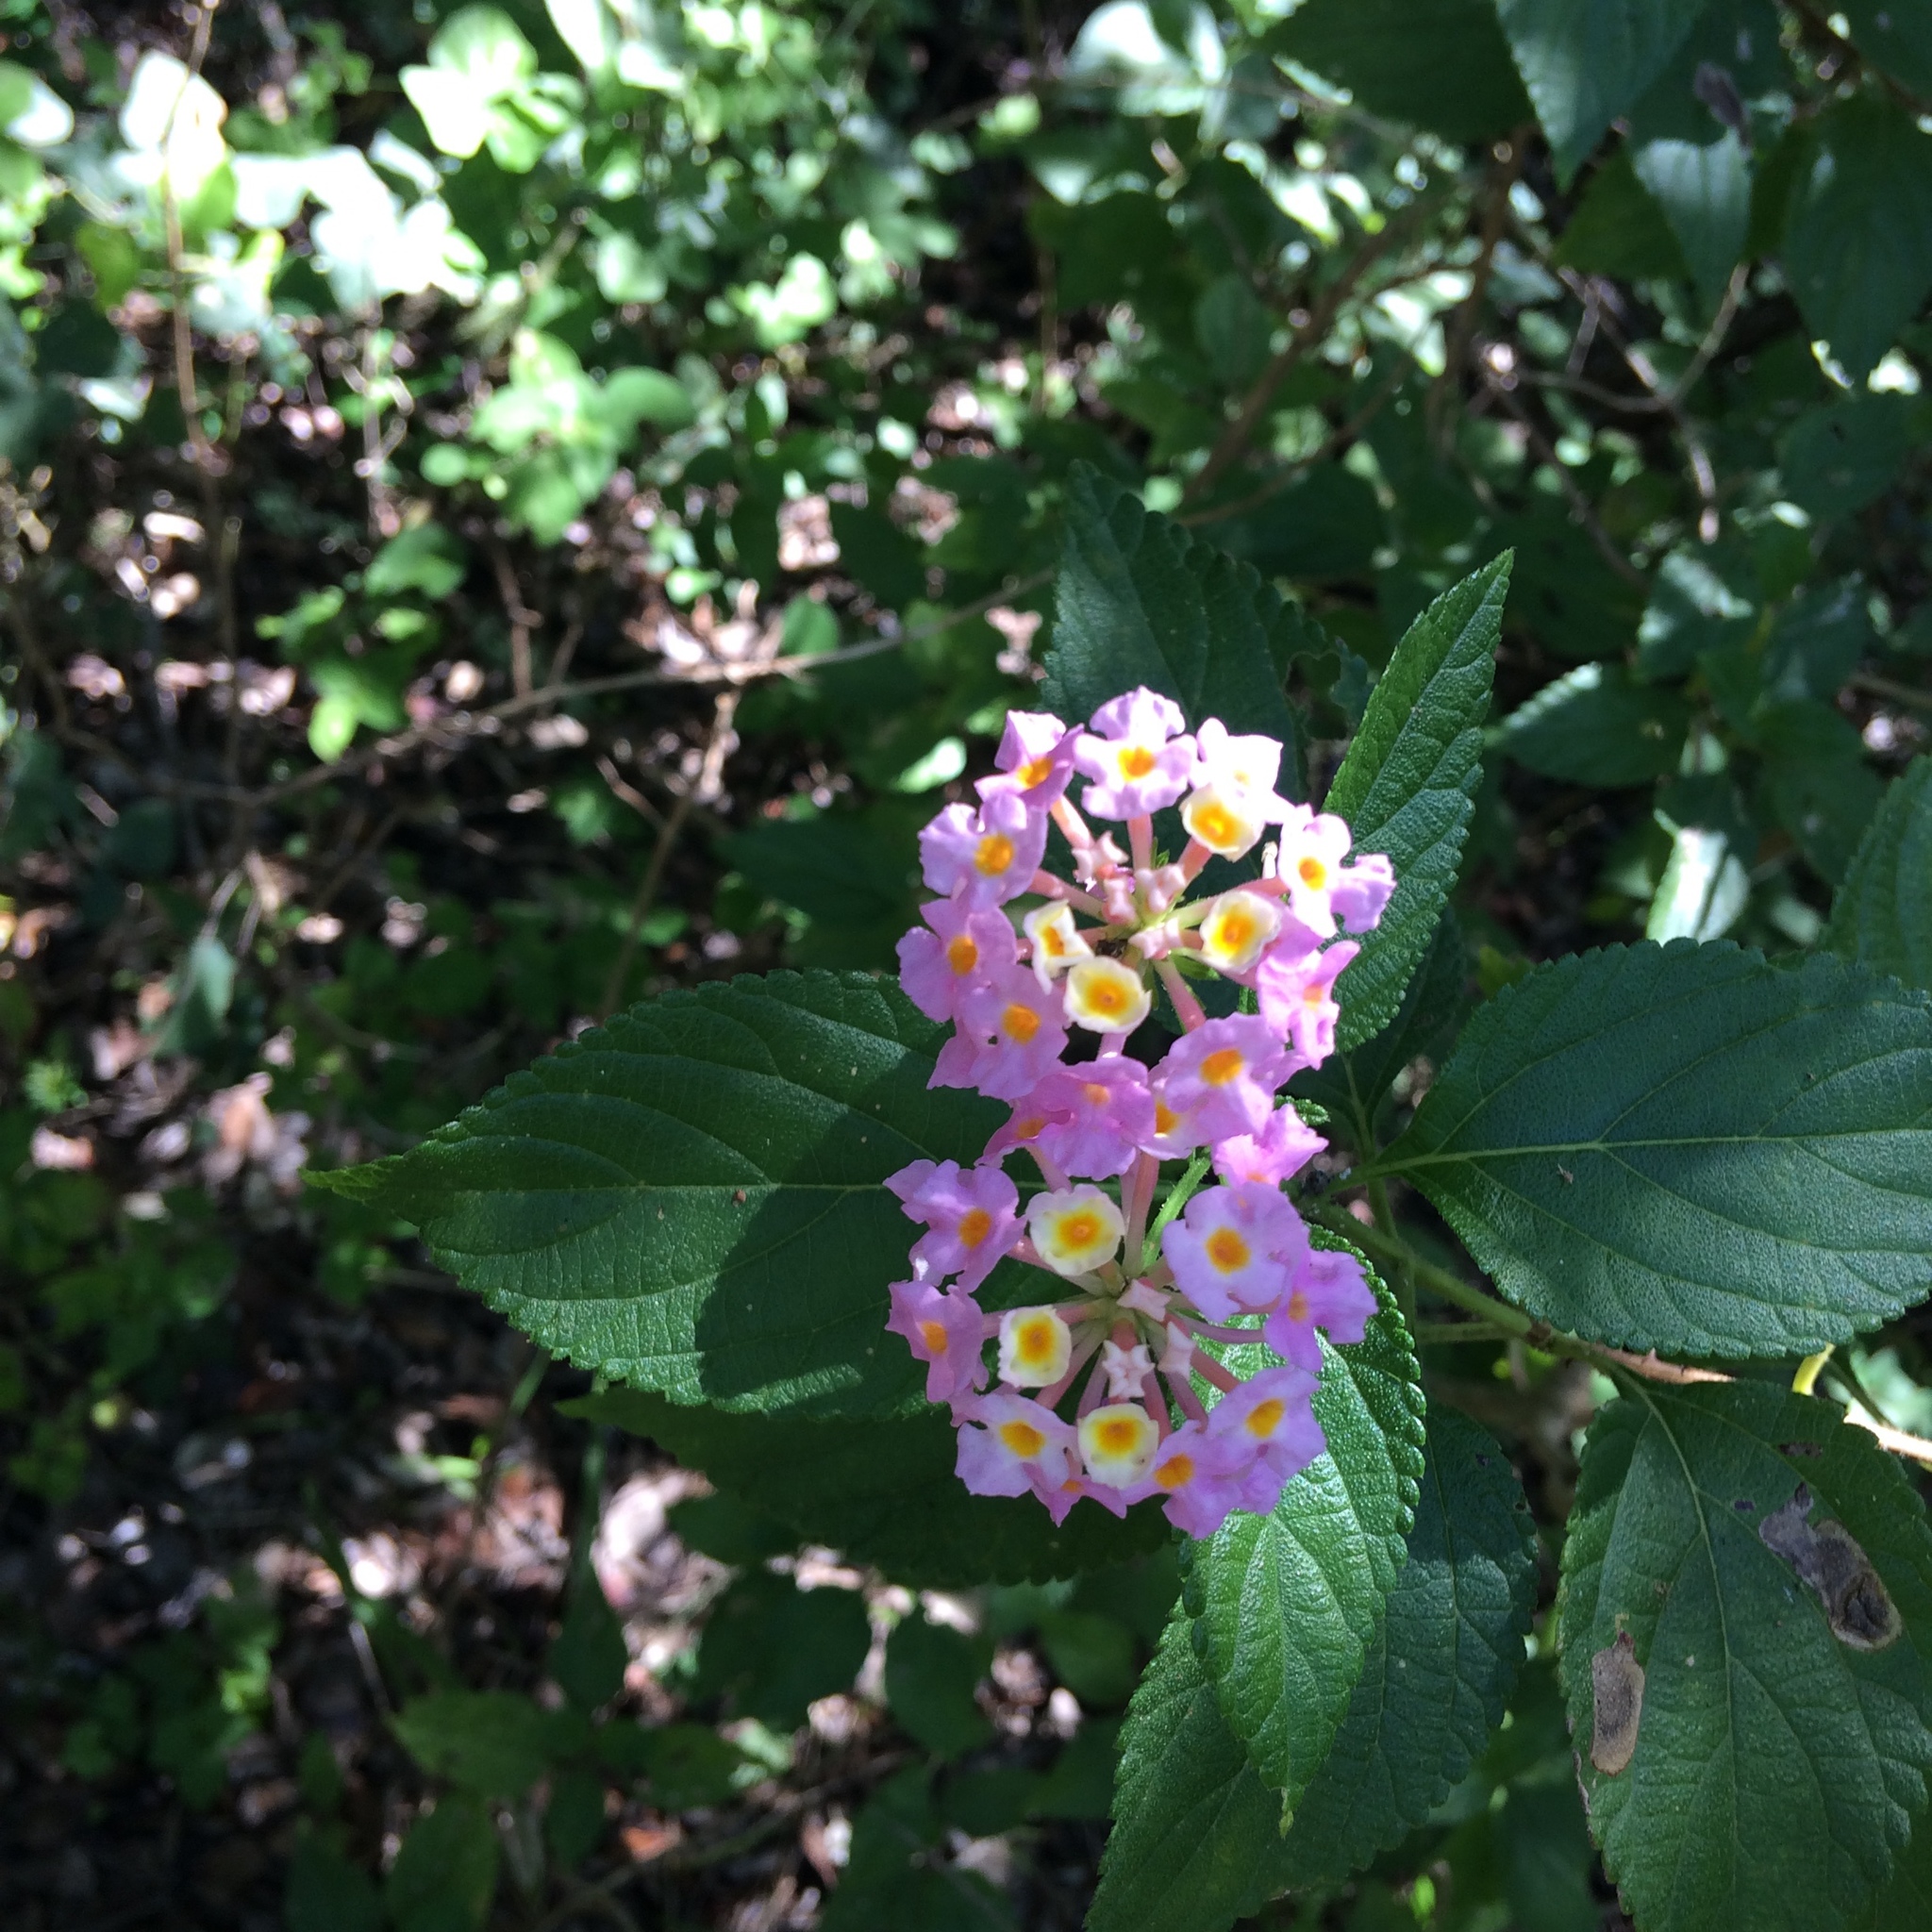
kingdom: Plantae
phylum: Tracheophyta
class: Magnoliopsida
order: Lamiales
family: Verbenaceae
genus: Lantana
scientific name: Lantana camara
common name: Lantana
